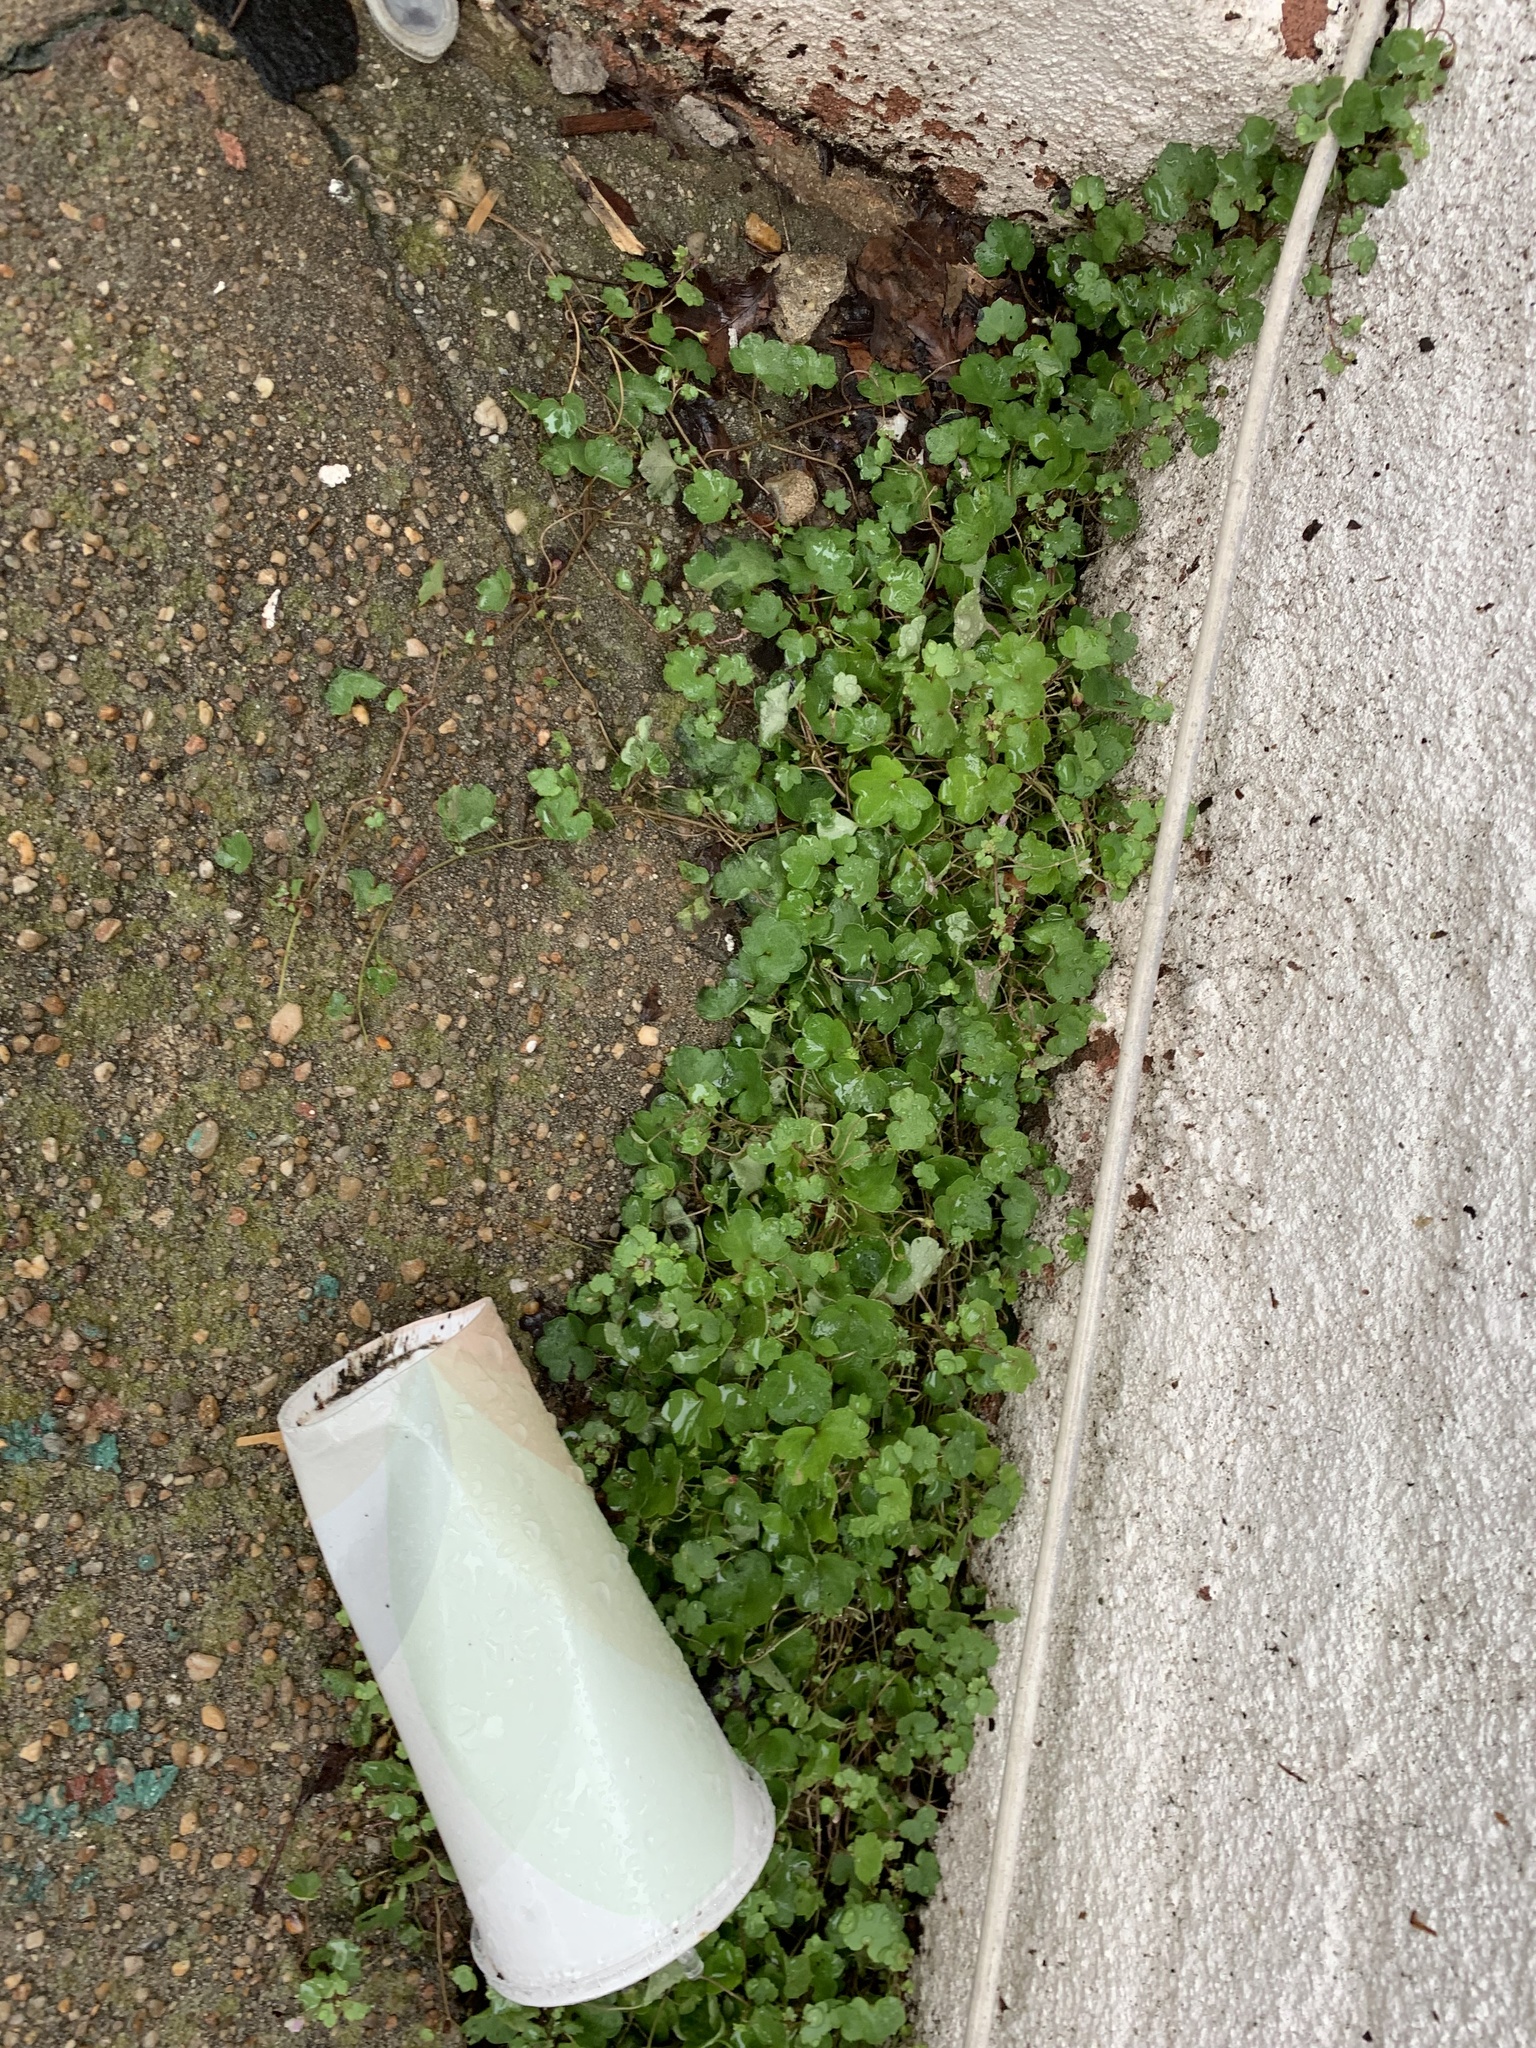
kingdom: Plantae
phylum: Tracheophyta
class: Magnoliopsida
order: Lamiales
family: Plantaginaceae
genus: Cymbalaria
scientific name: Cymbalaria muralis
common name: Ivy-leaved toadflax
